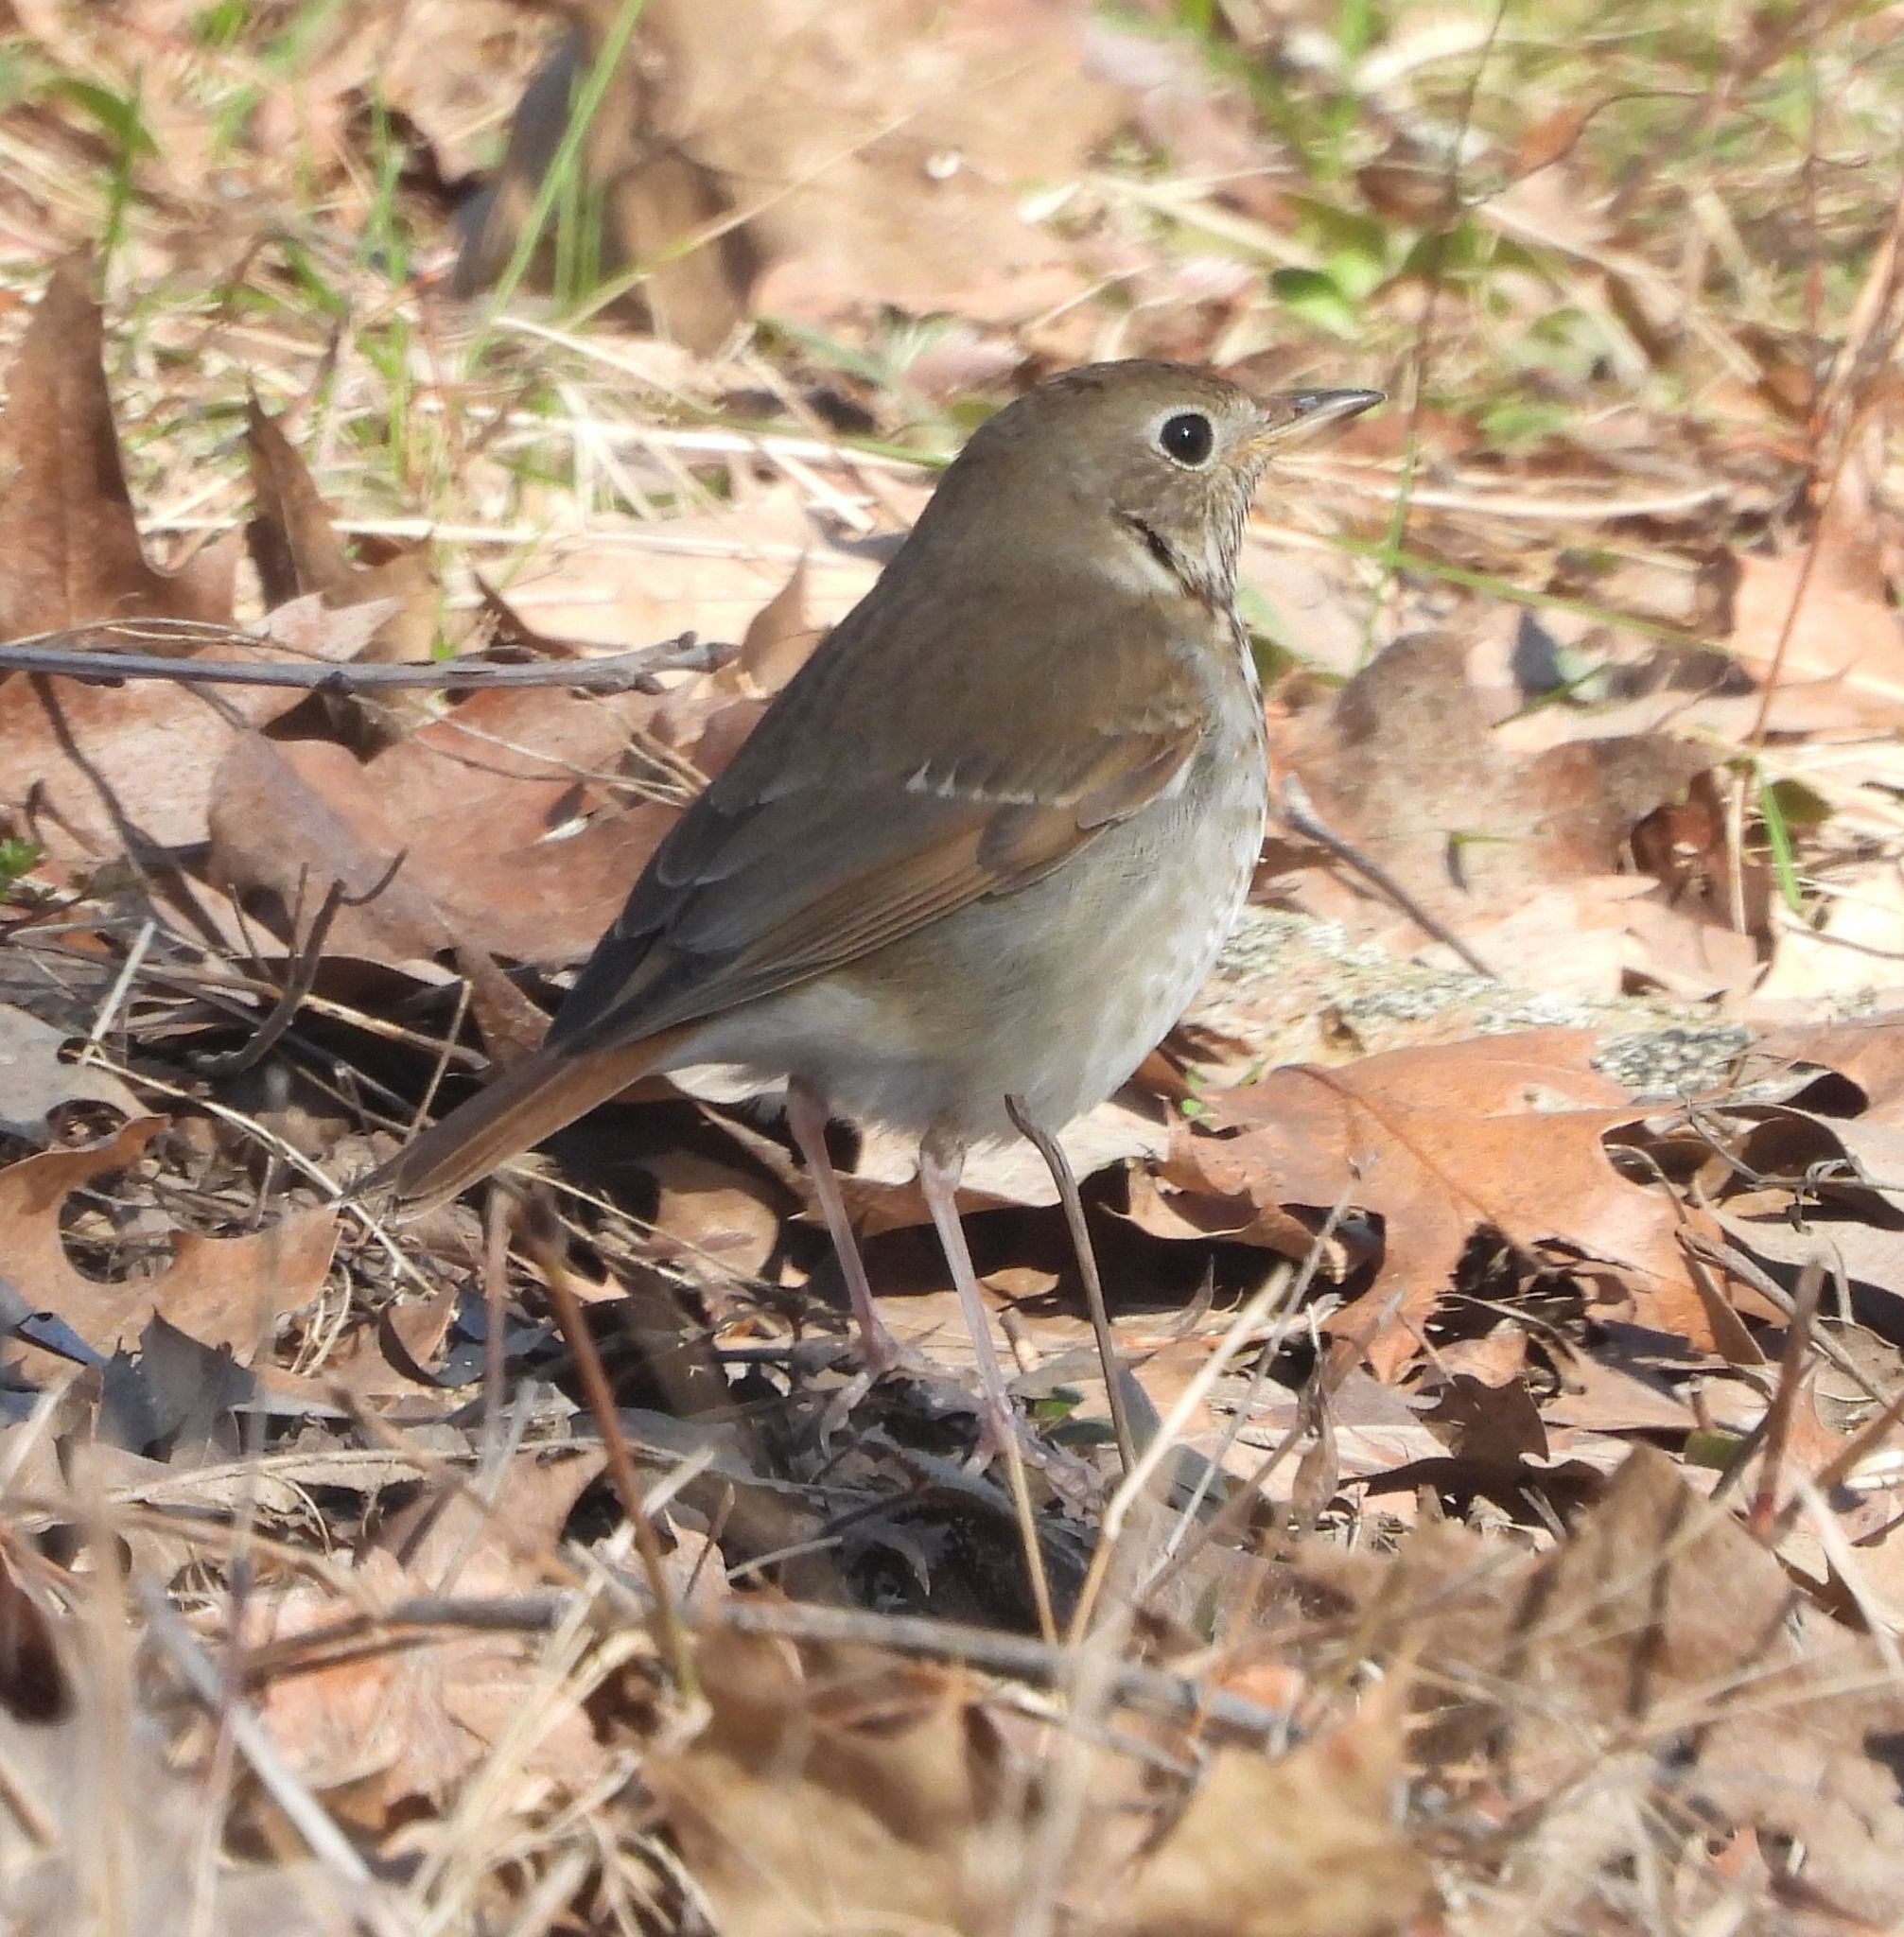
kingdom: Animalia
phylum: Chordata
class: Aves
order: Passeriformes
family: Turdidae
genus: Catharus
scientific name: Catharus guttatus
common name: Hermit thrush
